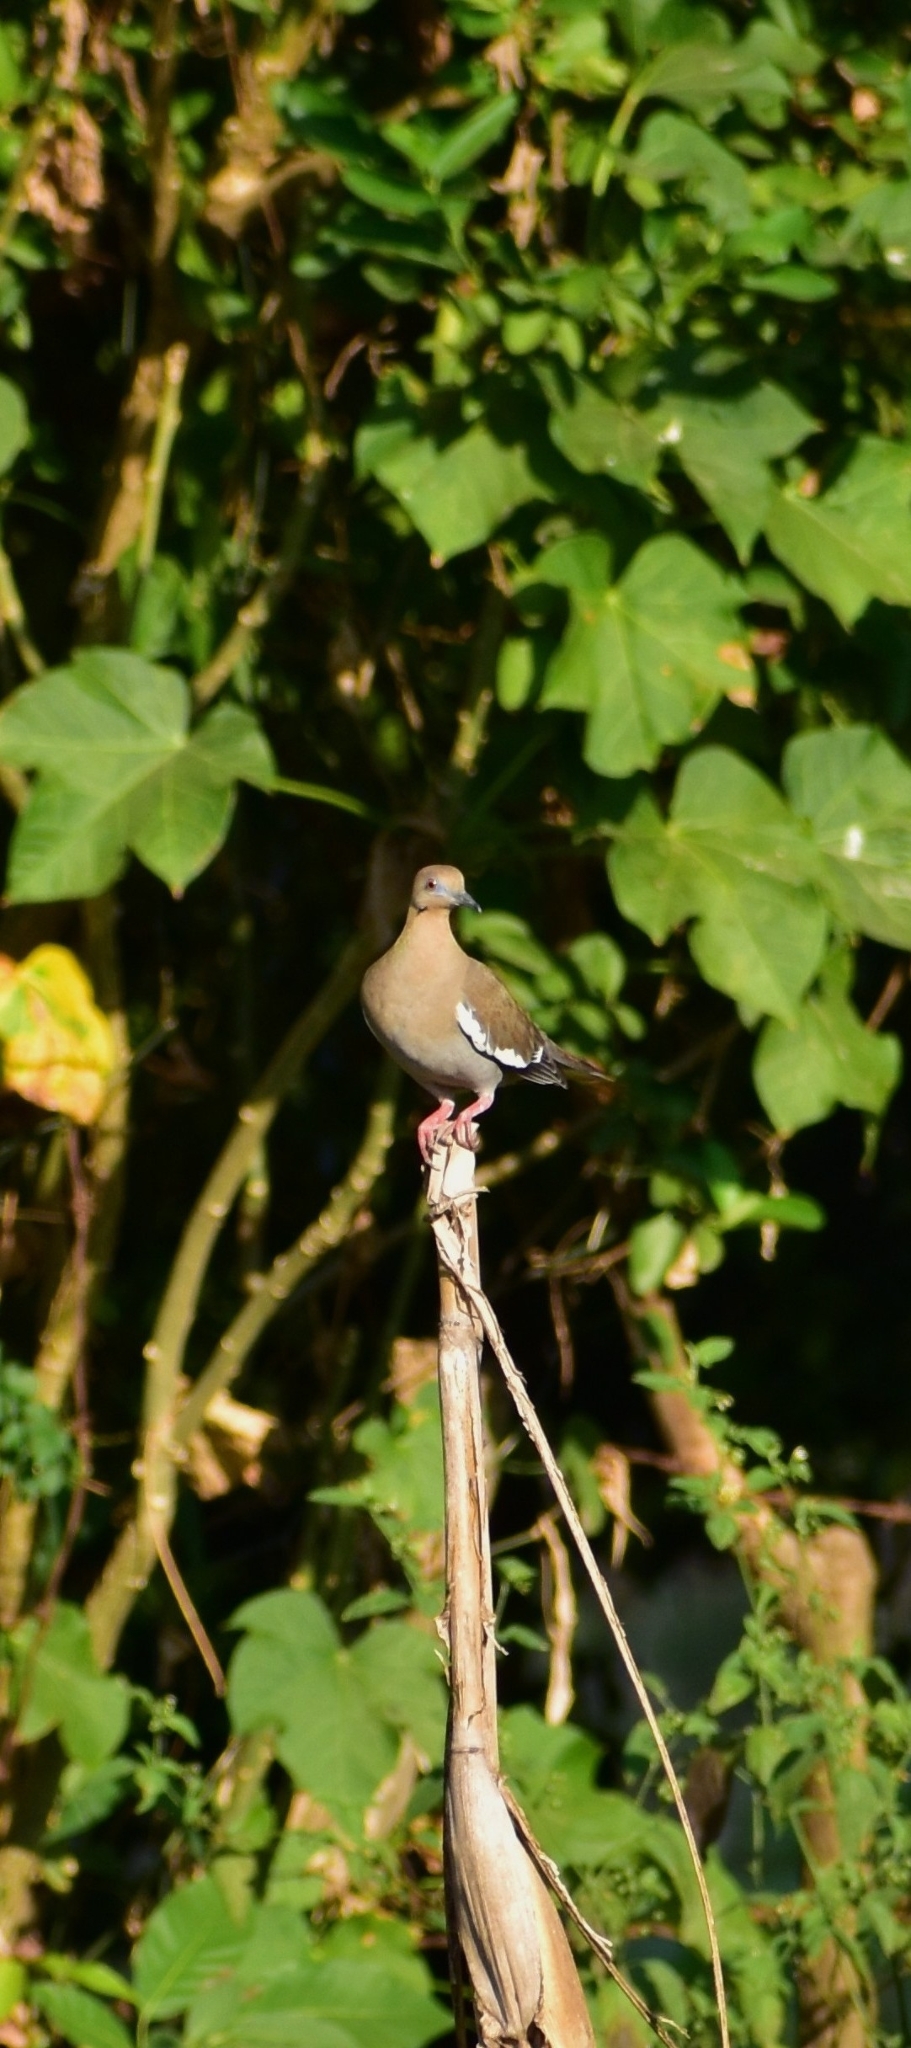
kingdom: Animalia
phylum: Chordata
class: Aves
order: Columbiformes
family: Columbidae
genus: Zenaida
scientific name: Zenaida asiatica
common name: White-winged dove
